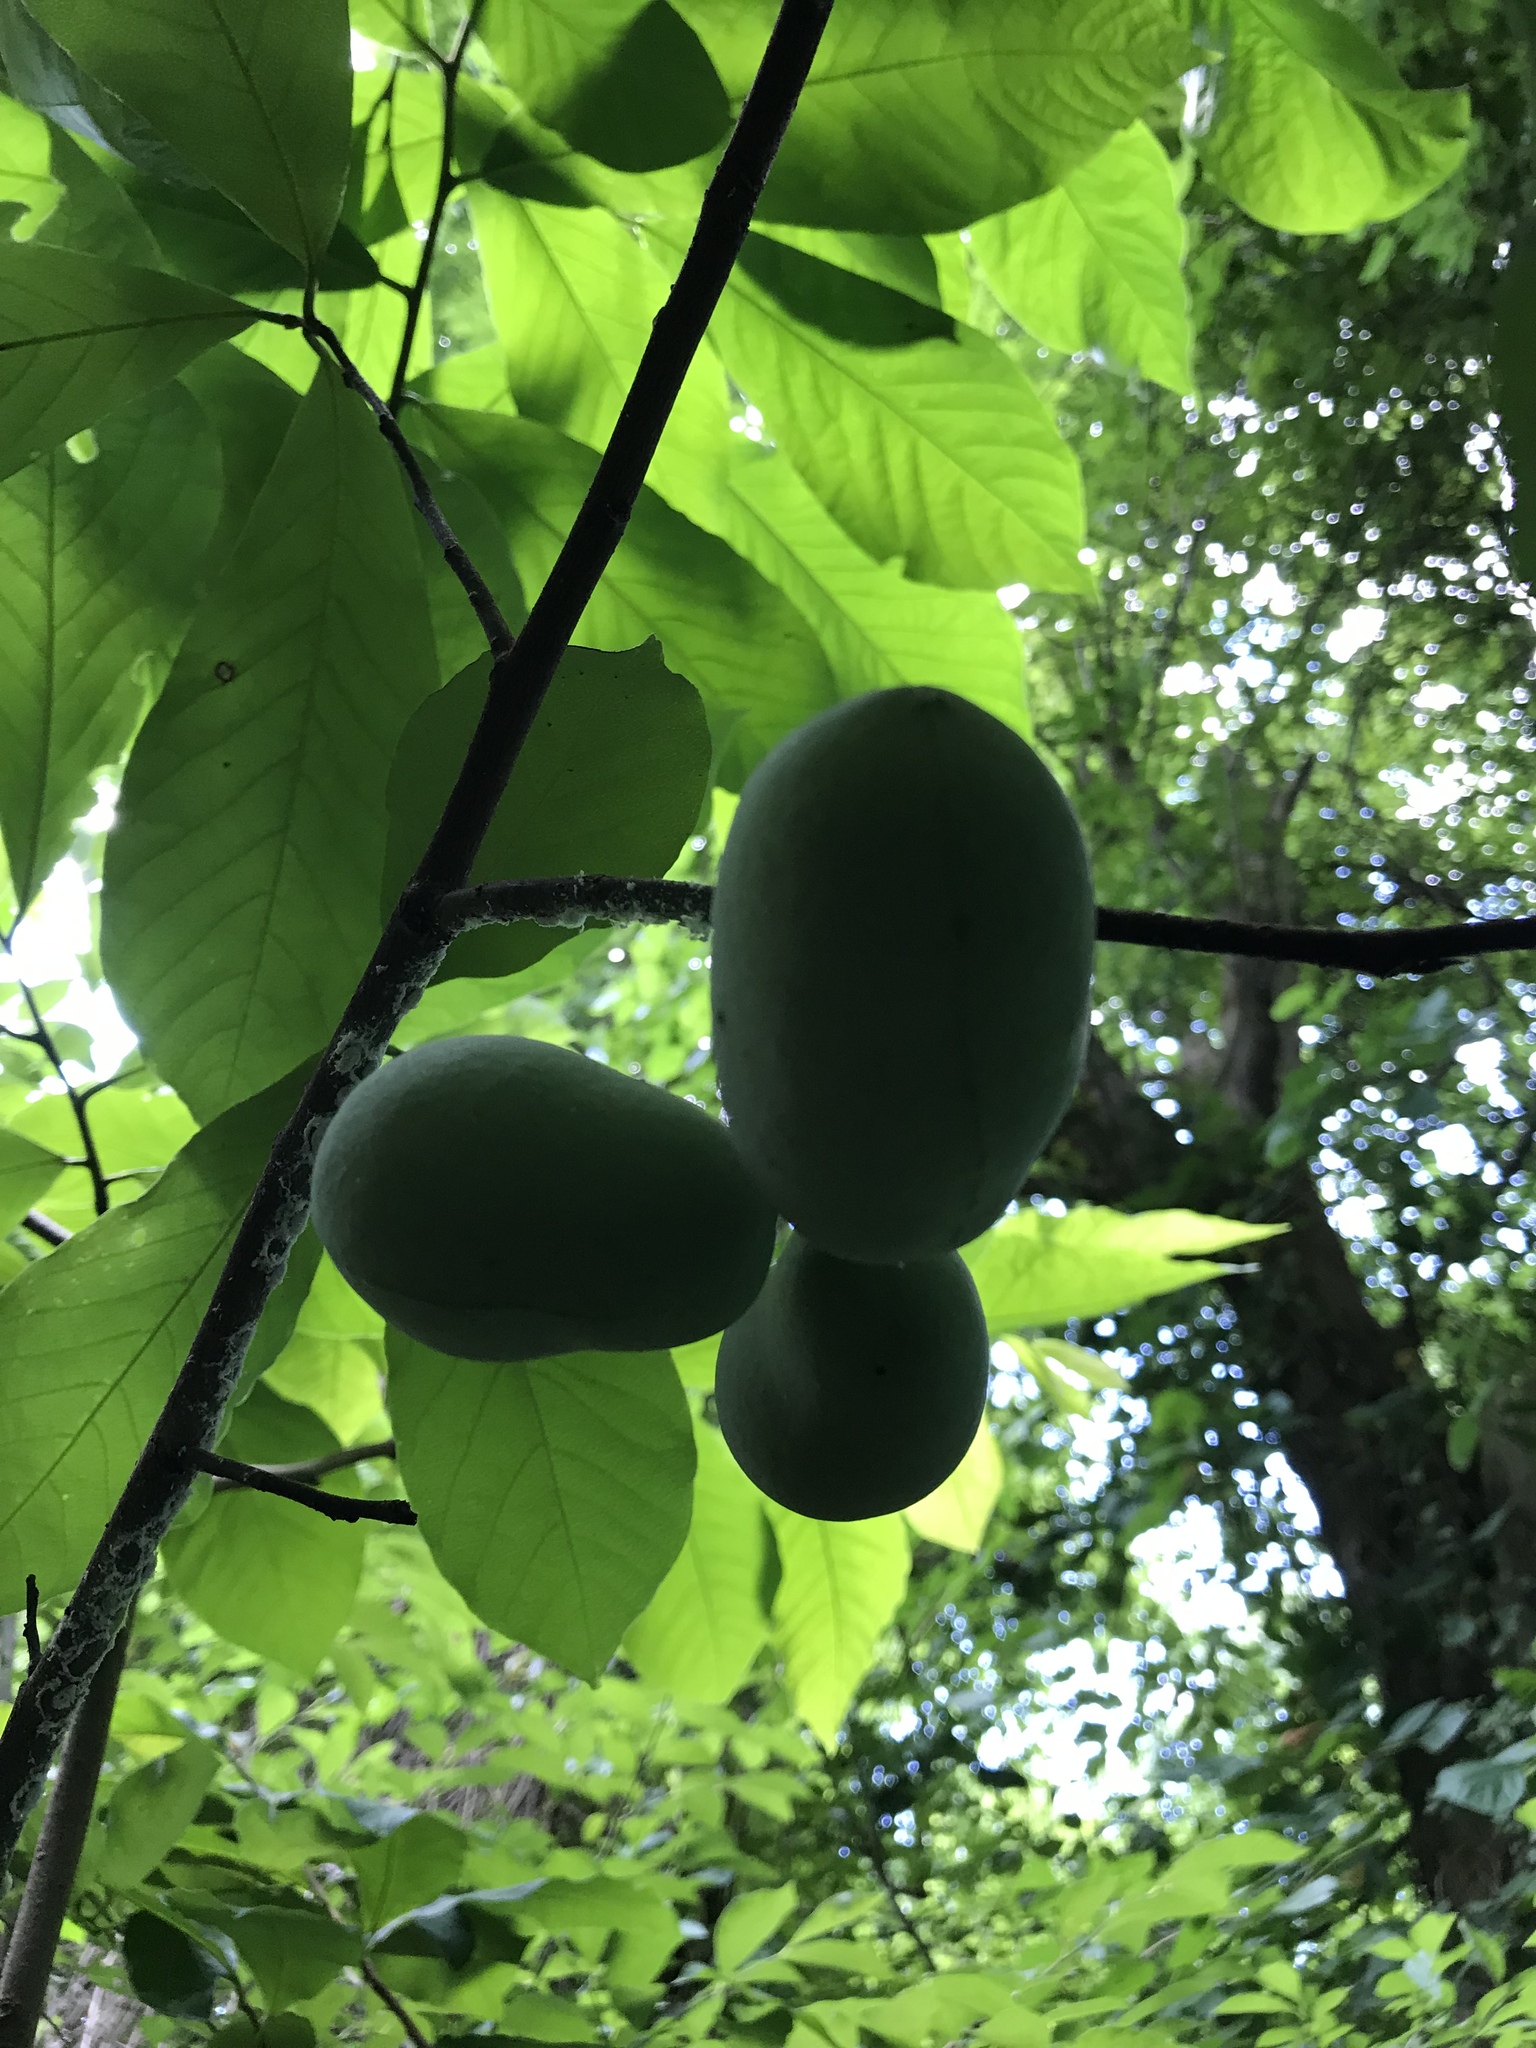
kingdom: Plantae
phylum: Tracheophyta
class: Magnoliopsida
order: Magnoliales
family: Annonaceae
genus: Asimina
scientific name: Asimina triloba
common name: Dog-banana
